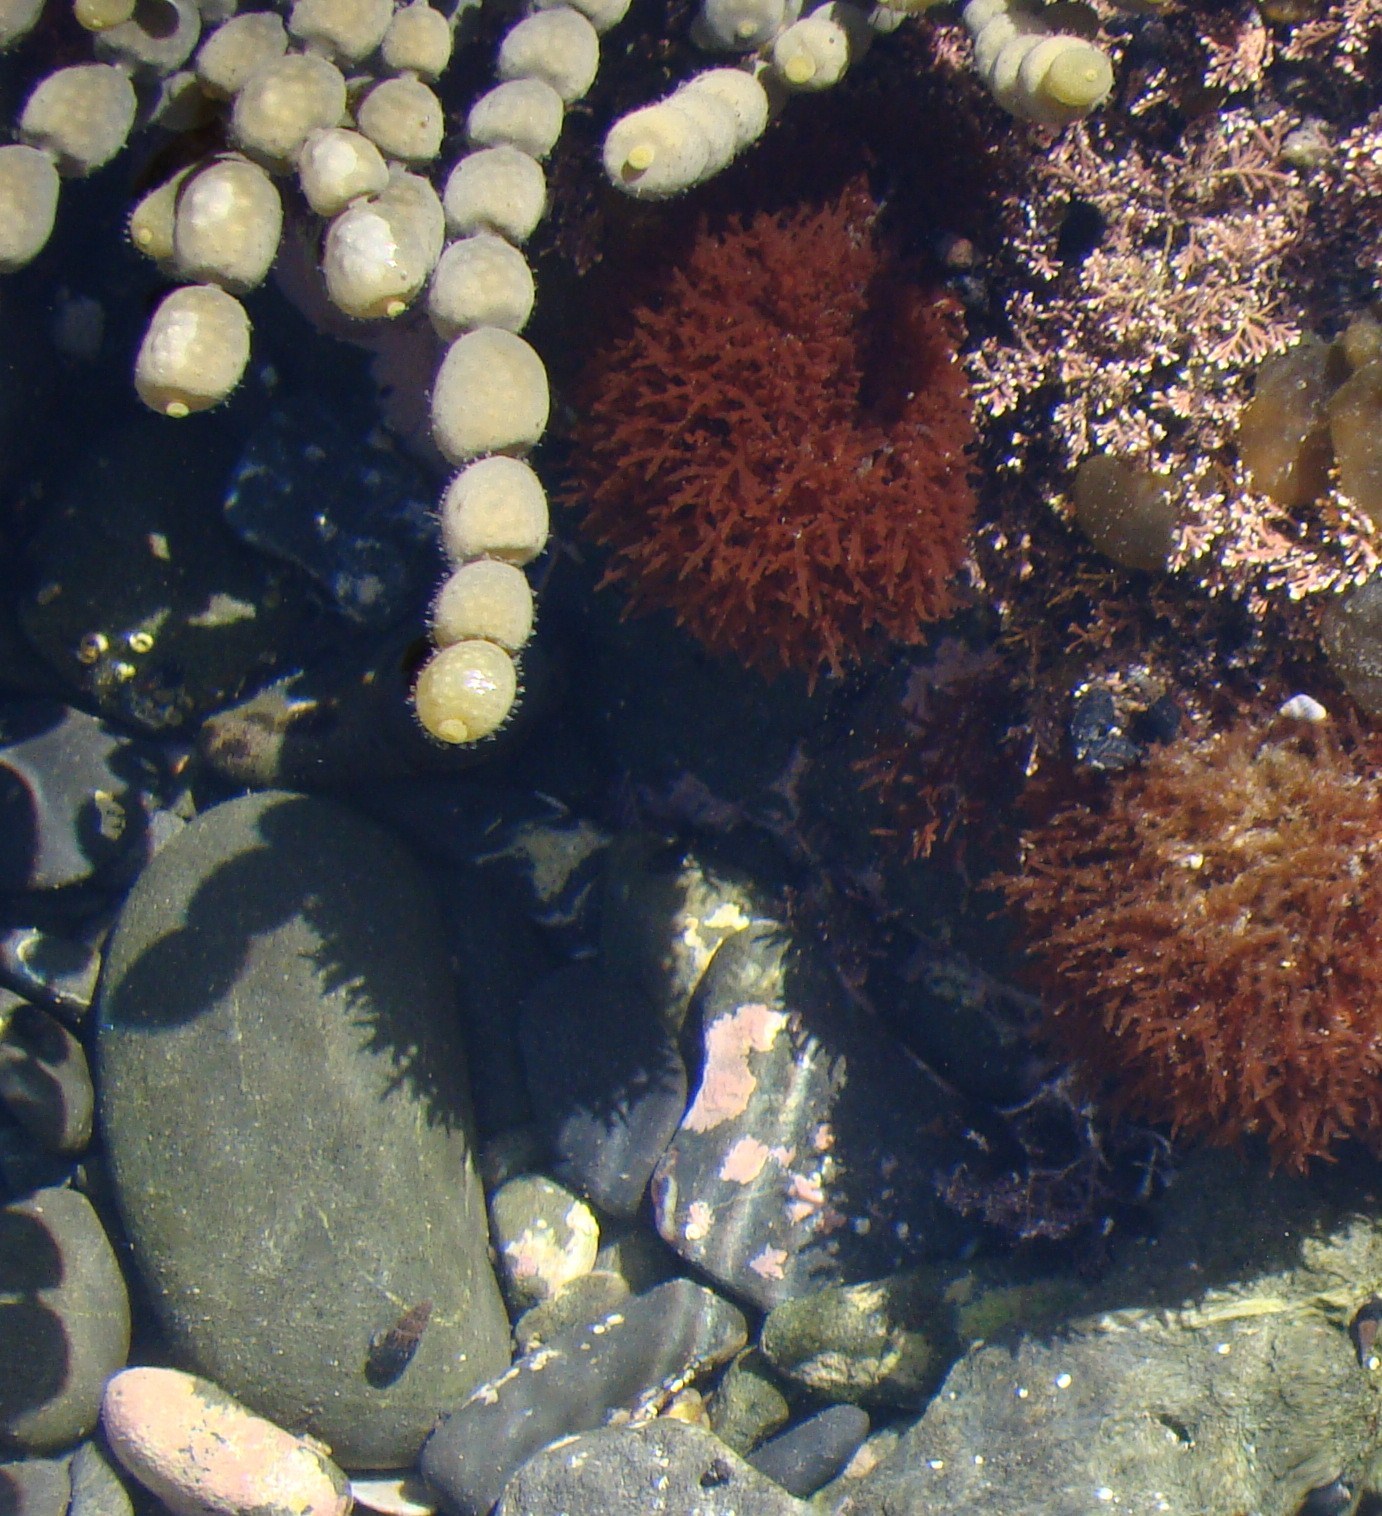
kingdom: Chromista
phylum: Ochrophyta
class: Phaeophyceae
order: Fucales
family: Hormosiraceae
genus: Hormosira
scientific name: Hormosira banksii
